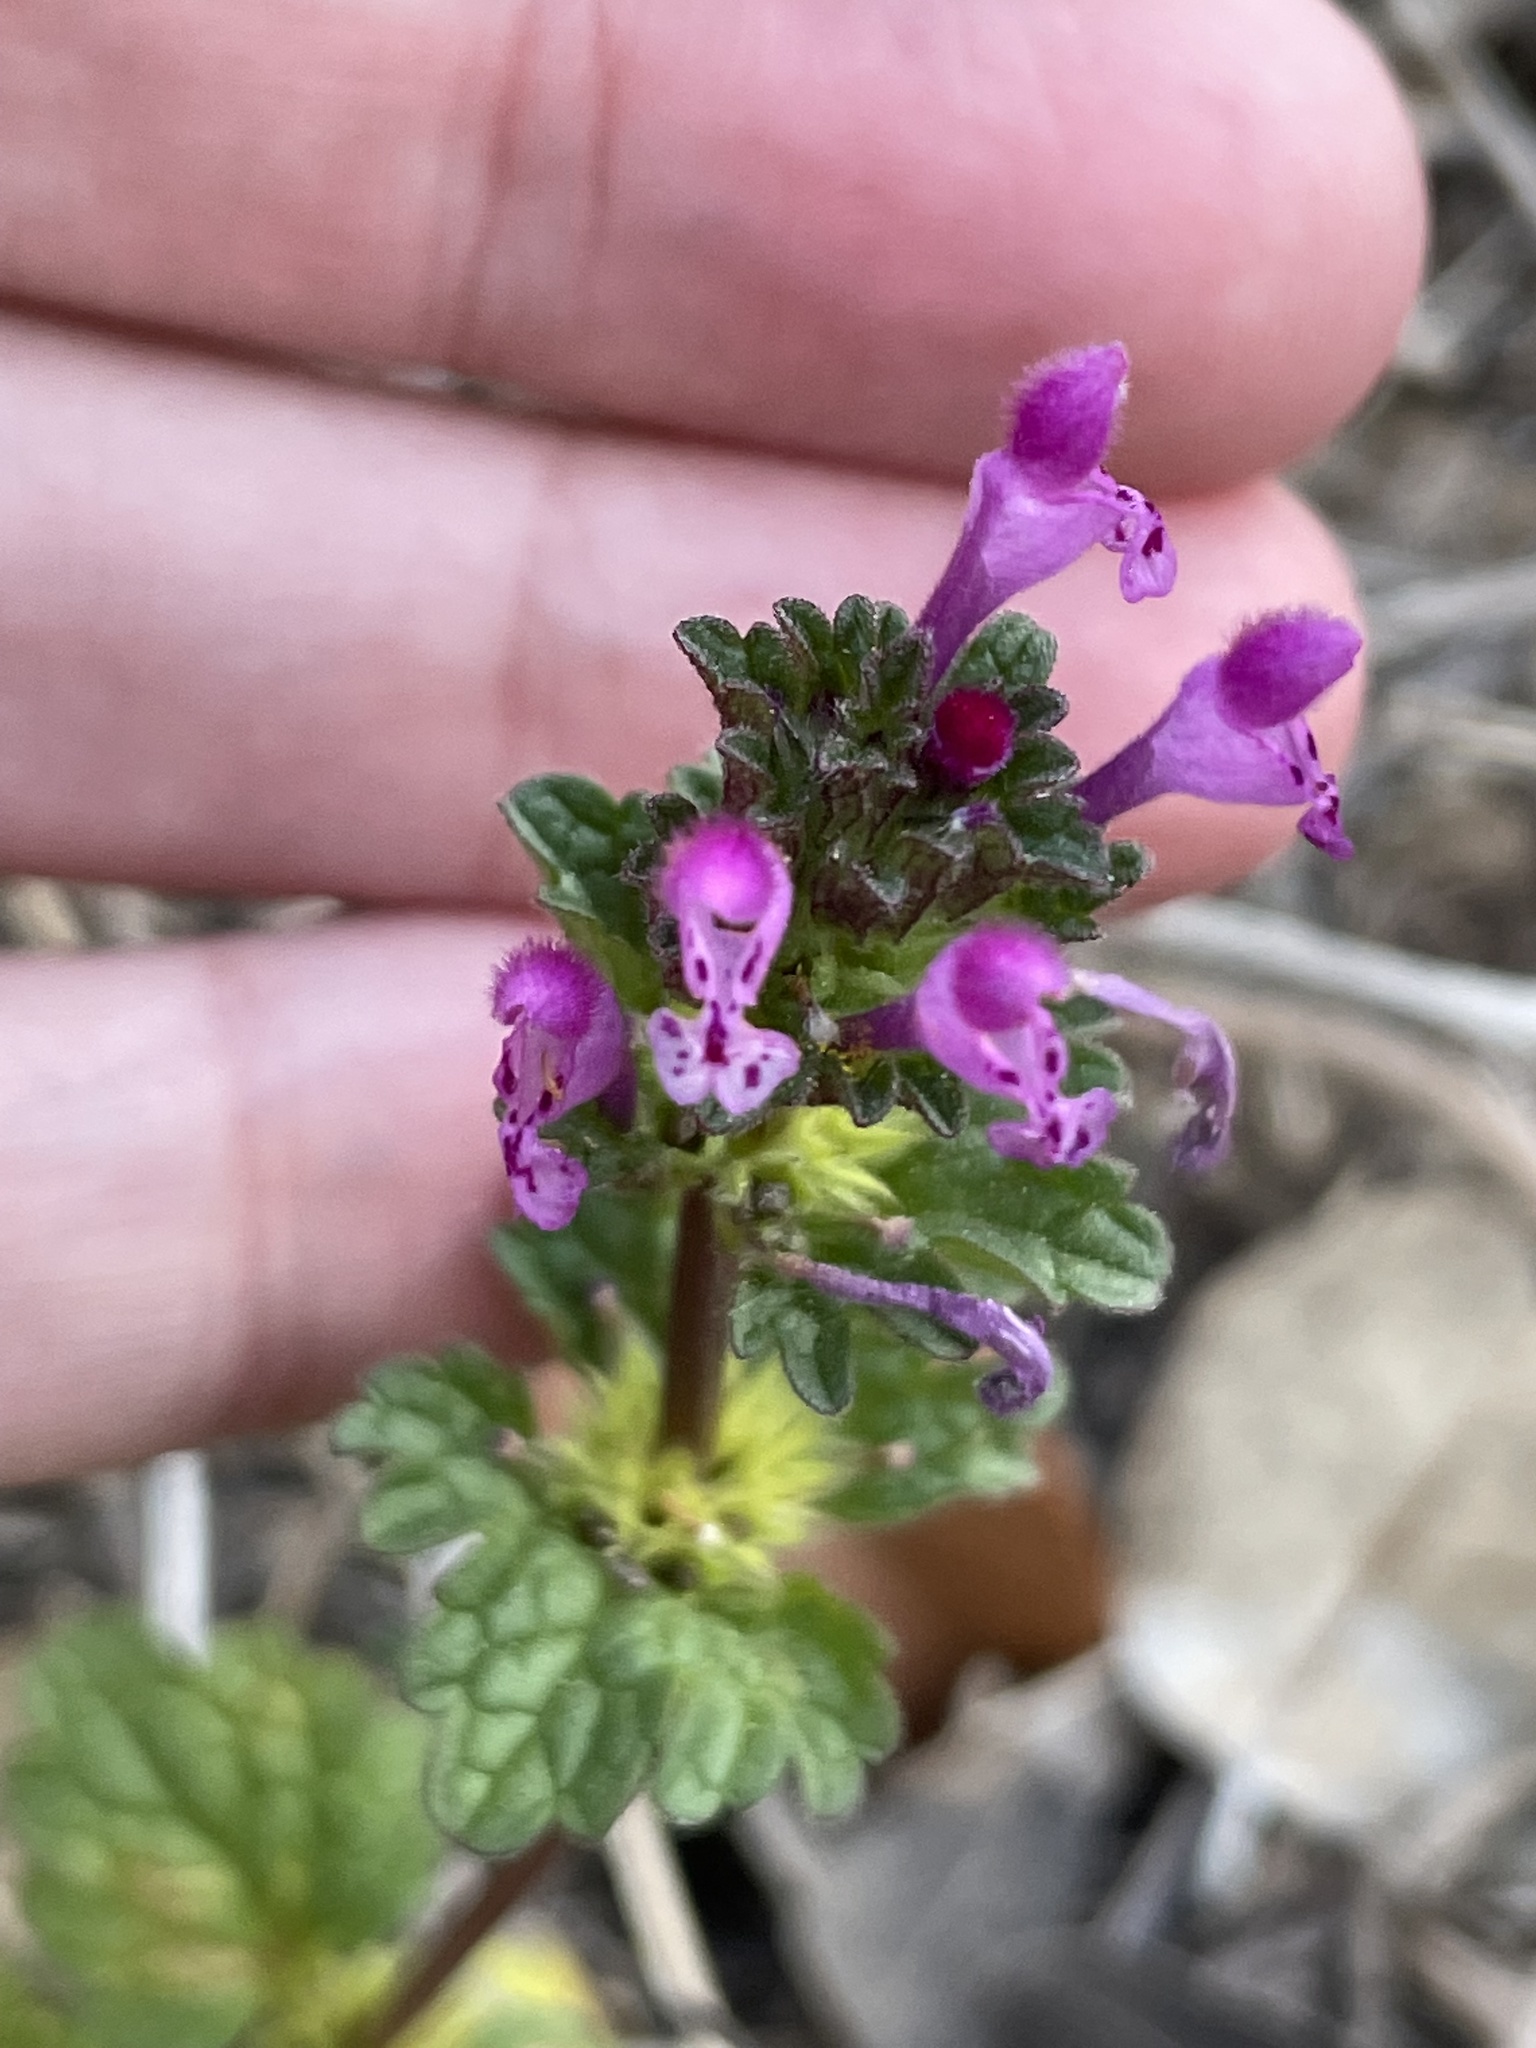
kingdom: Plantae
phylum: Tracheophyta
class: Magnoliopsida
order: Lamiales
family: Lamiaceae
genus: Lamium
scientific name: Lamium amplexicaule
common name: Henbit dead-nettle
